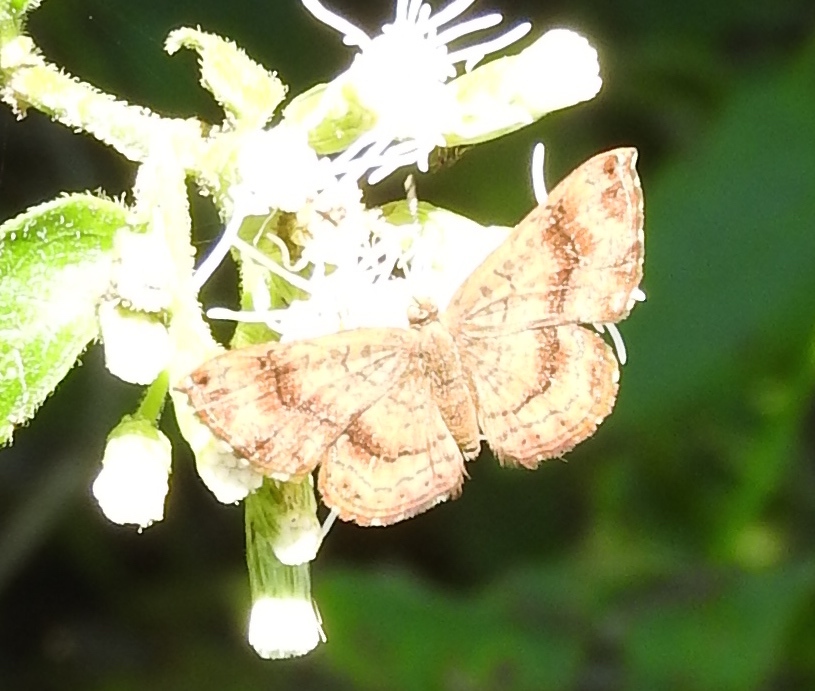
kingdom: Animalia
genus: Calephelis
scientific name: Calephelis
